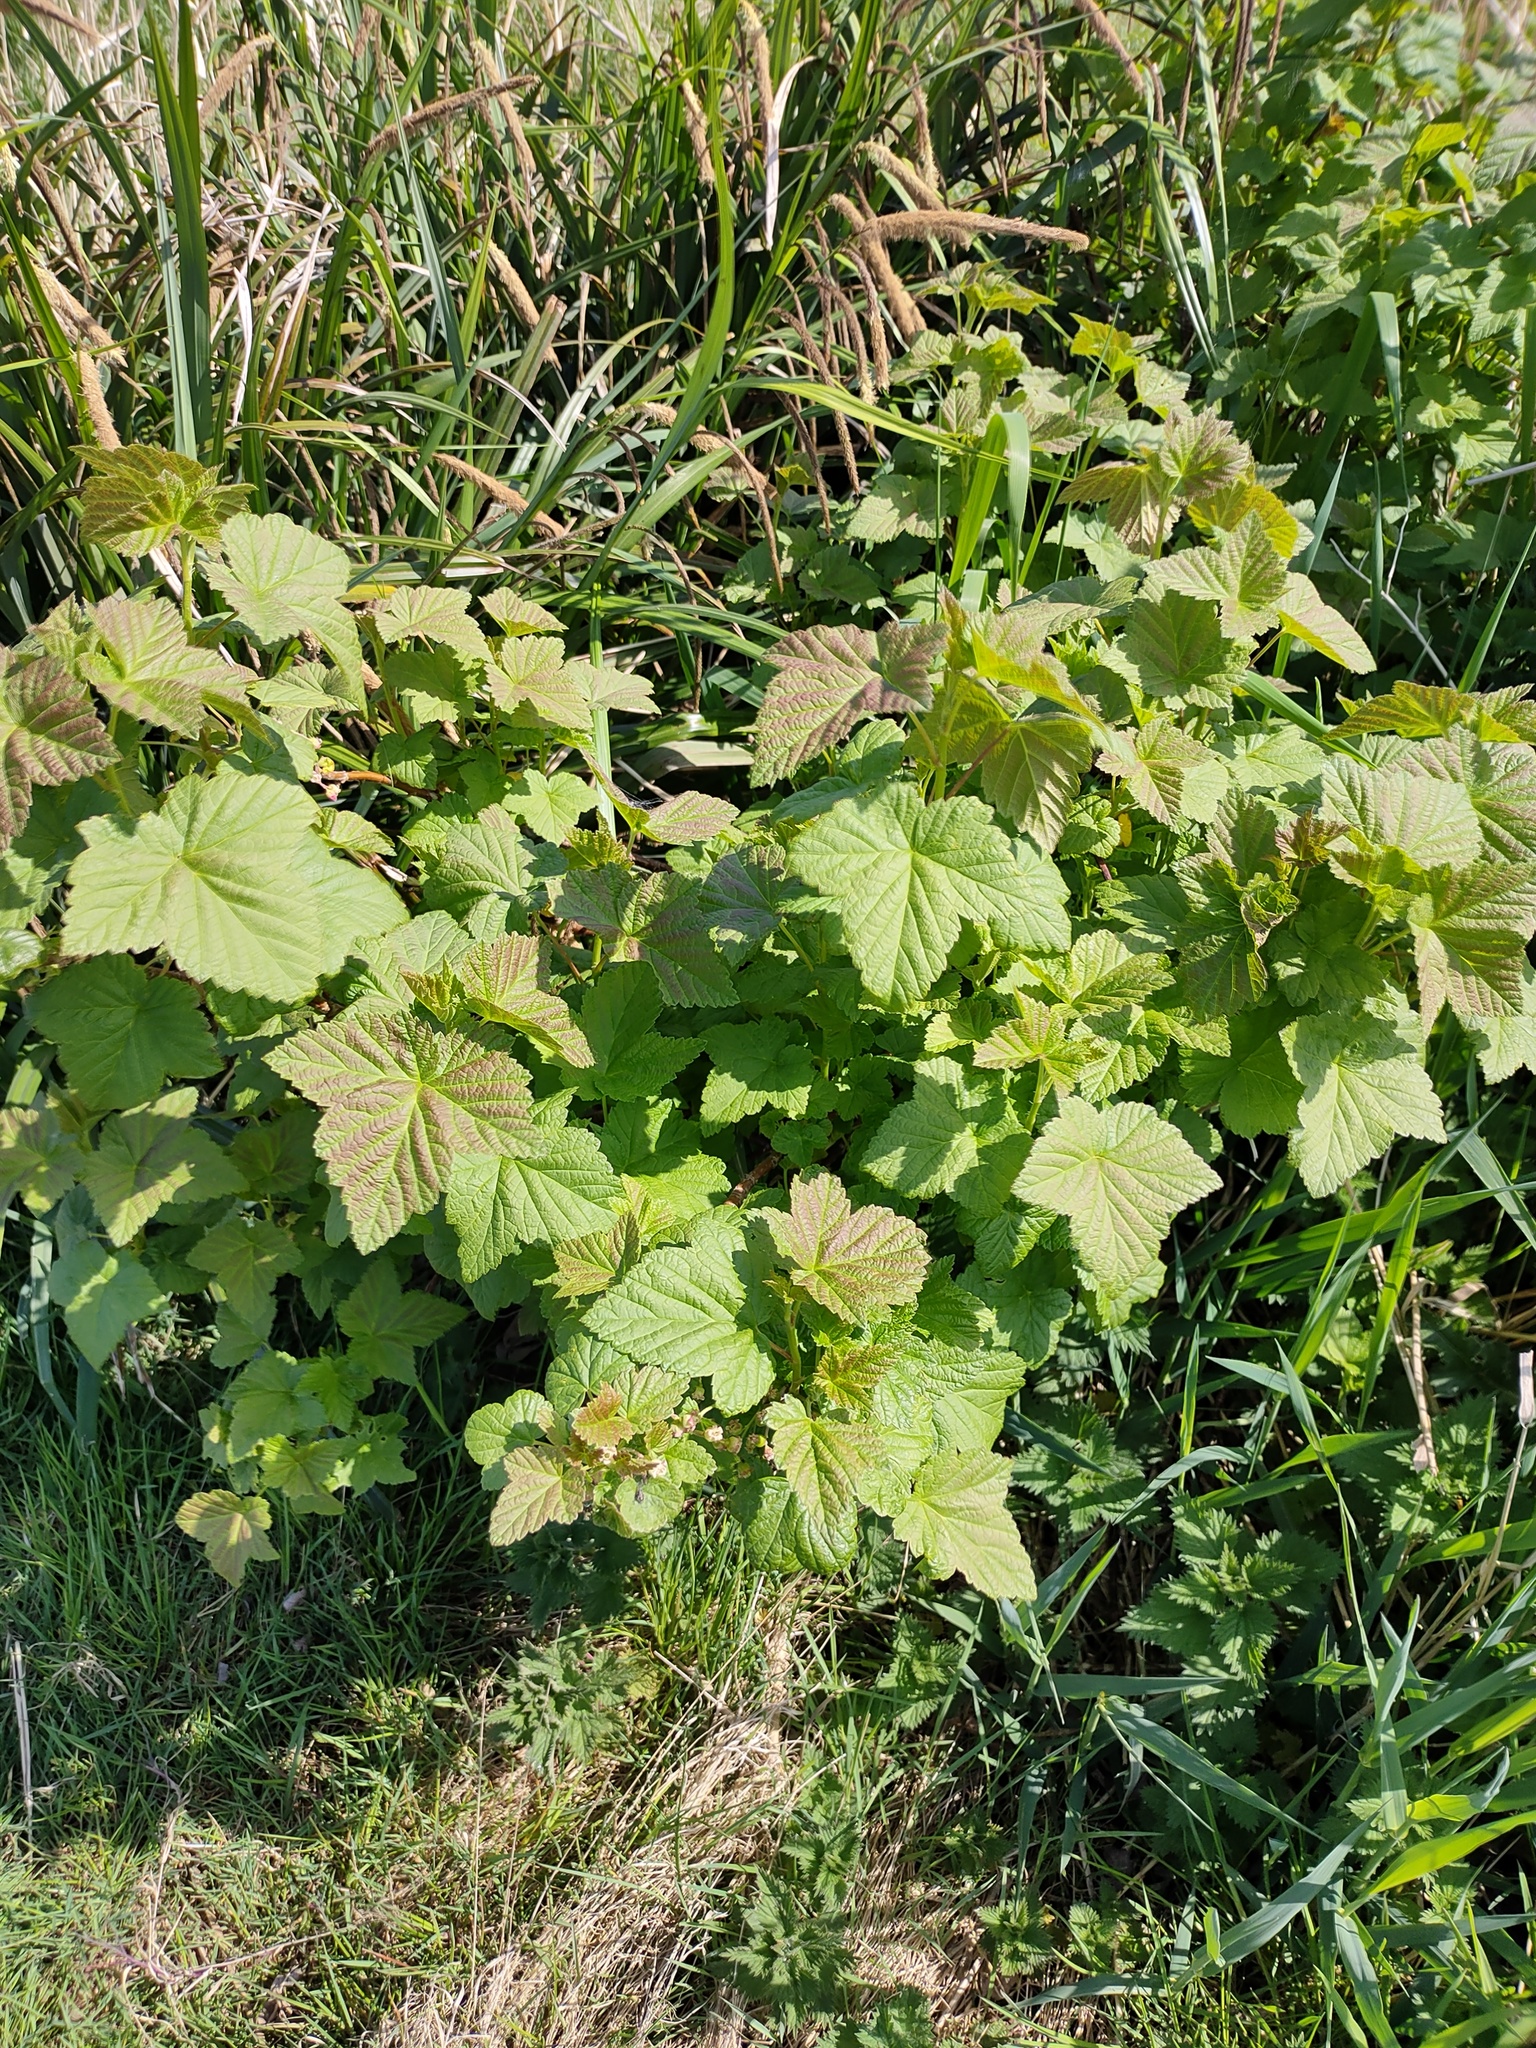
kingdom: Plantae
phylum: Tracheophyta
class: Magnoliopsida
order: Saxifragales
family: Grossulariaceae
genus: Ribes
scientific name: Ribes nigrum
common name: Black currant
